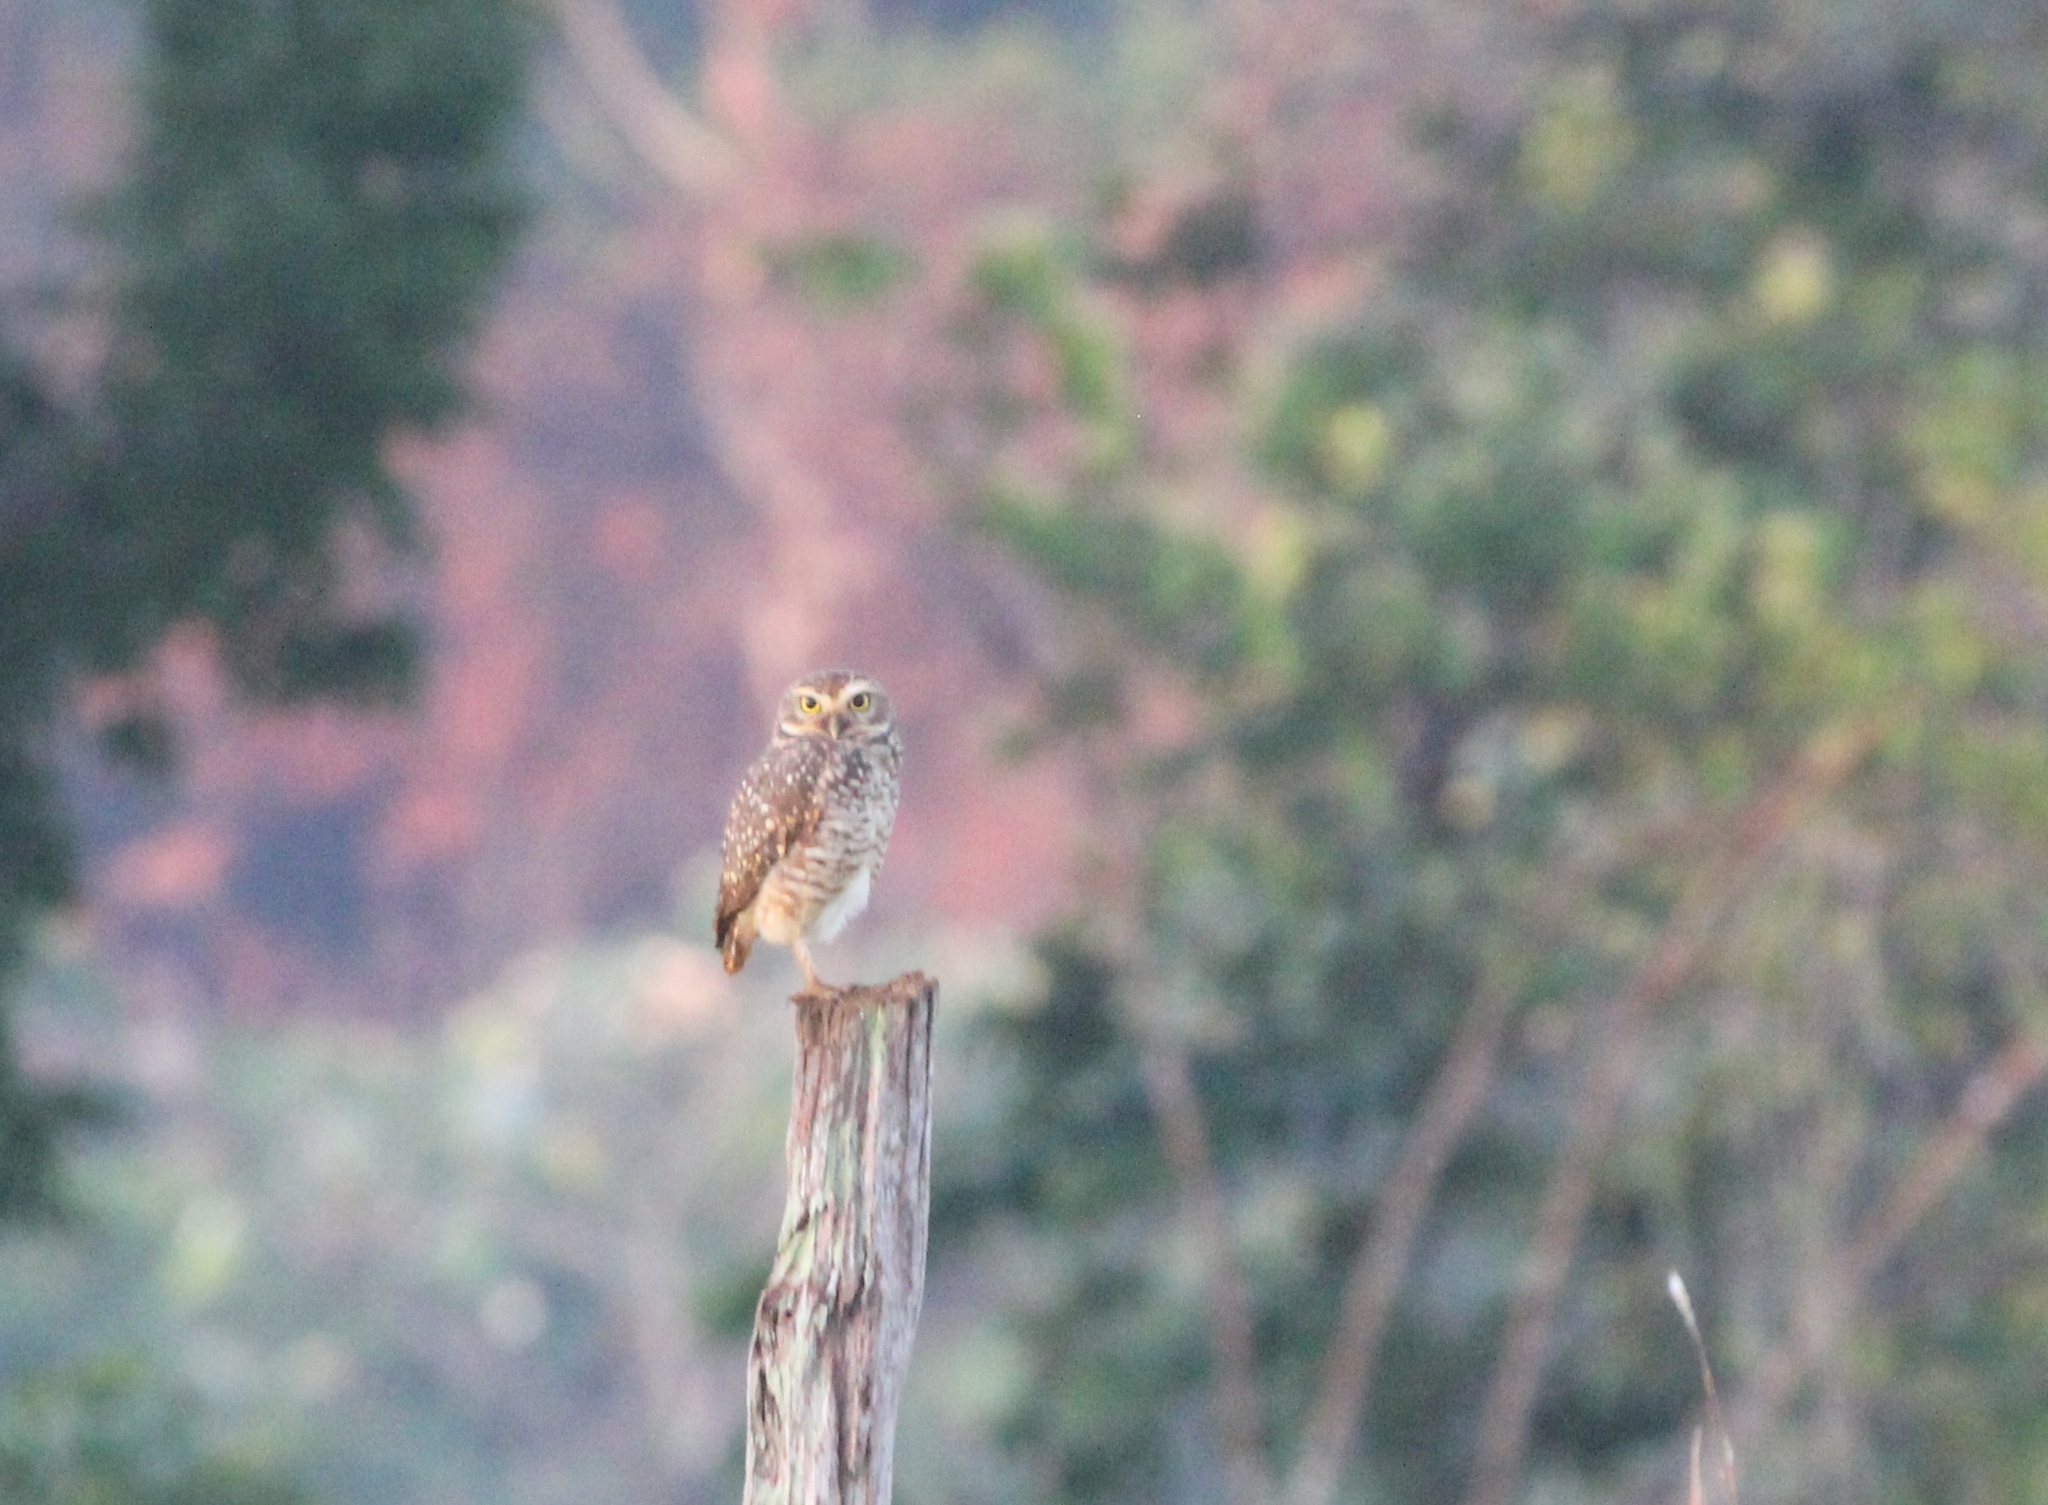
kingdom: Animalia
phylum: Chordata
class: Aves
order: Strigiformes
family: Strigidae
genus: Athene
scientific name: Athene cunicularia
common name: Burrowing owl
